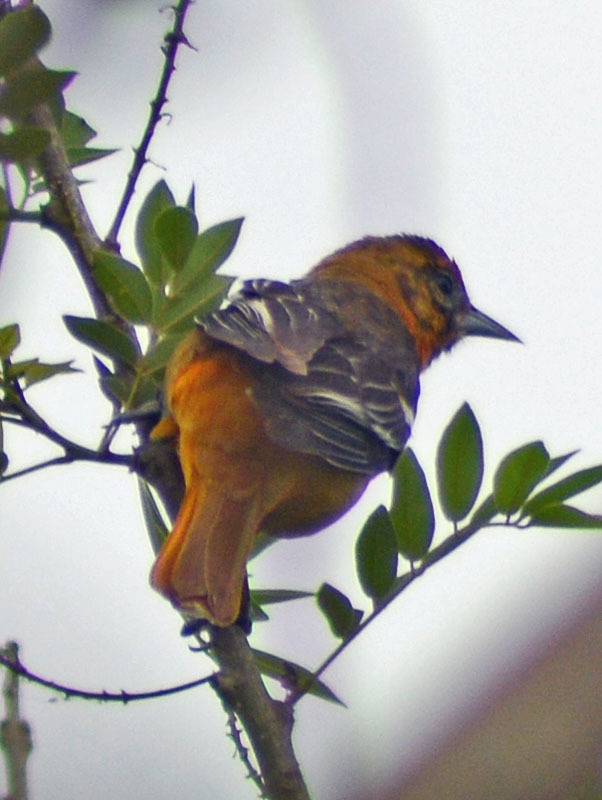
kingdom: Animalia
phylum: Chordata
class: Aves
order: Passeriformes
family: Icteridae
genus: Icterus
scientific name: Icterus galbula
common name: Baltimore oriole
